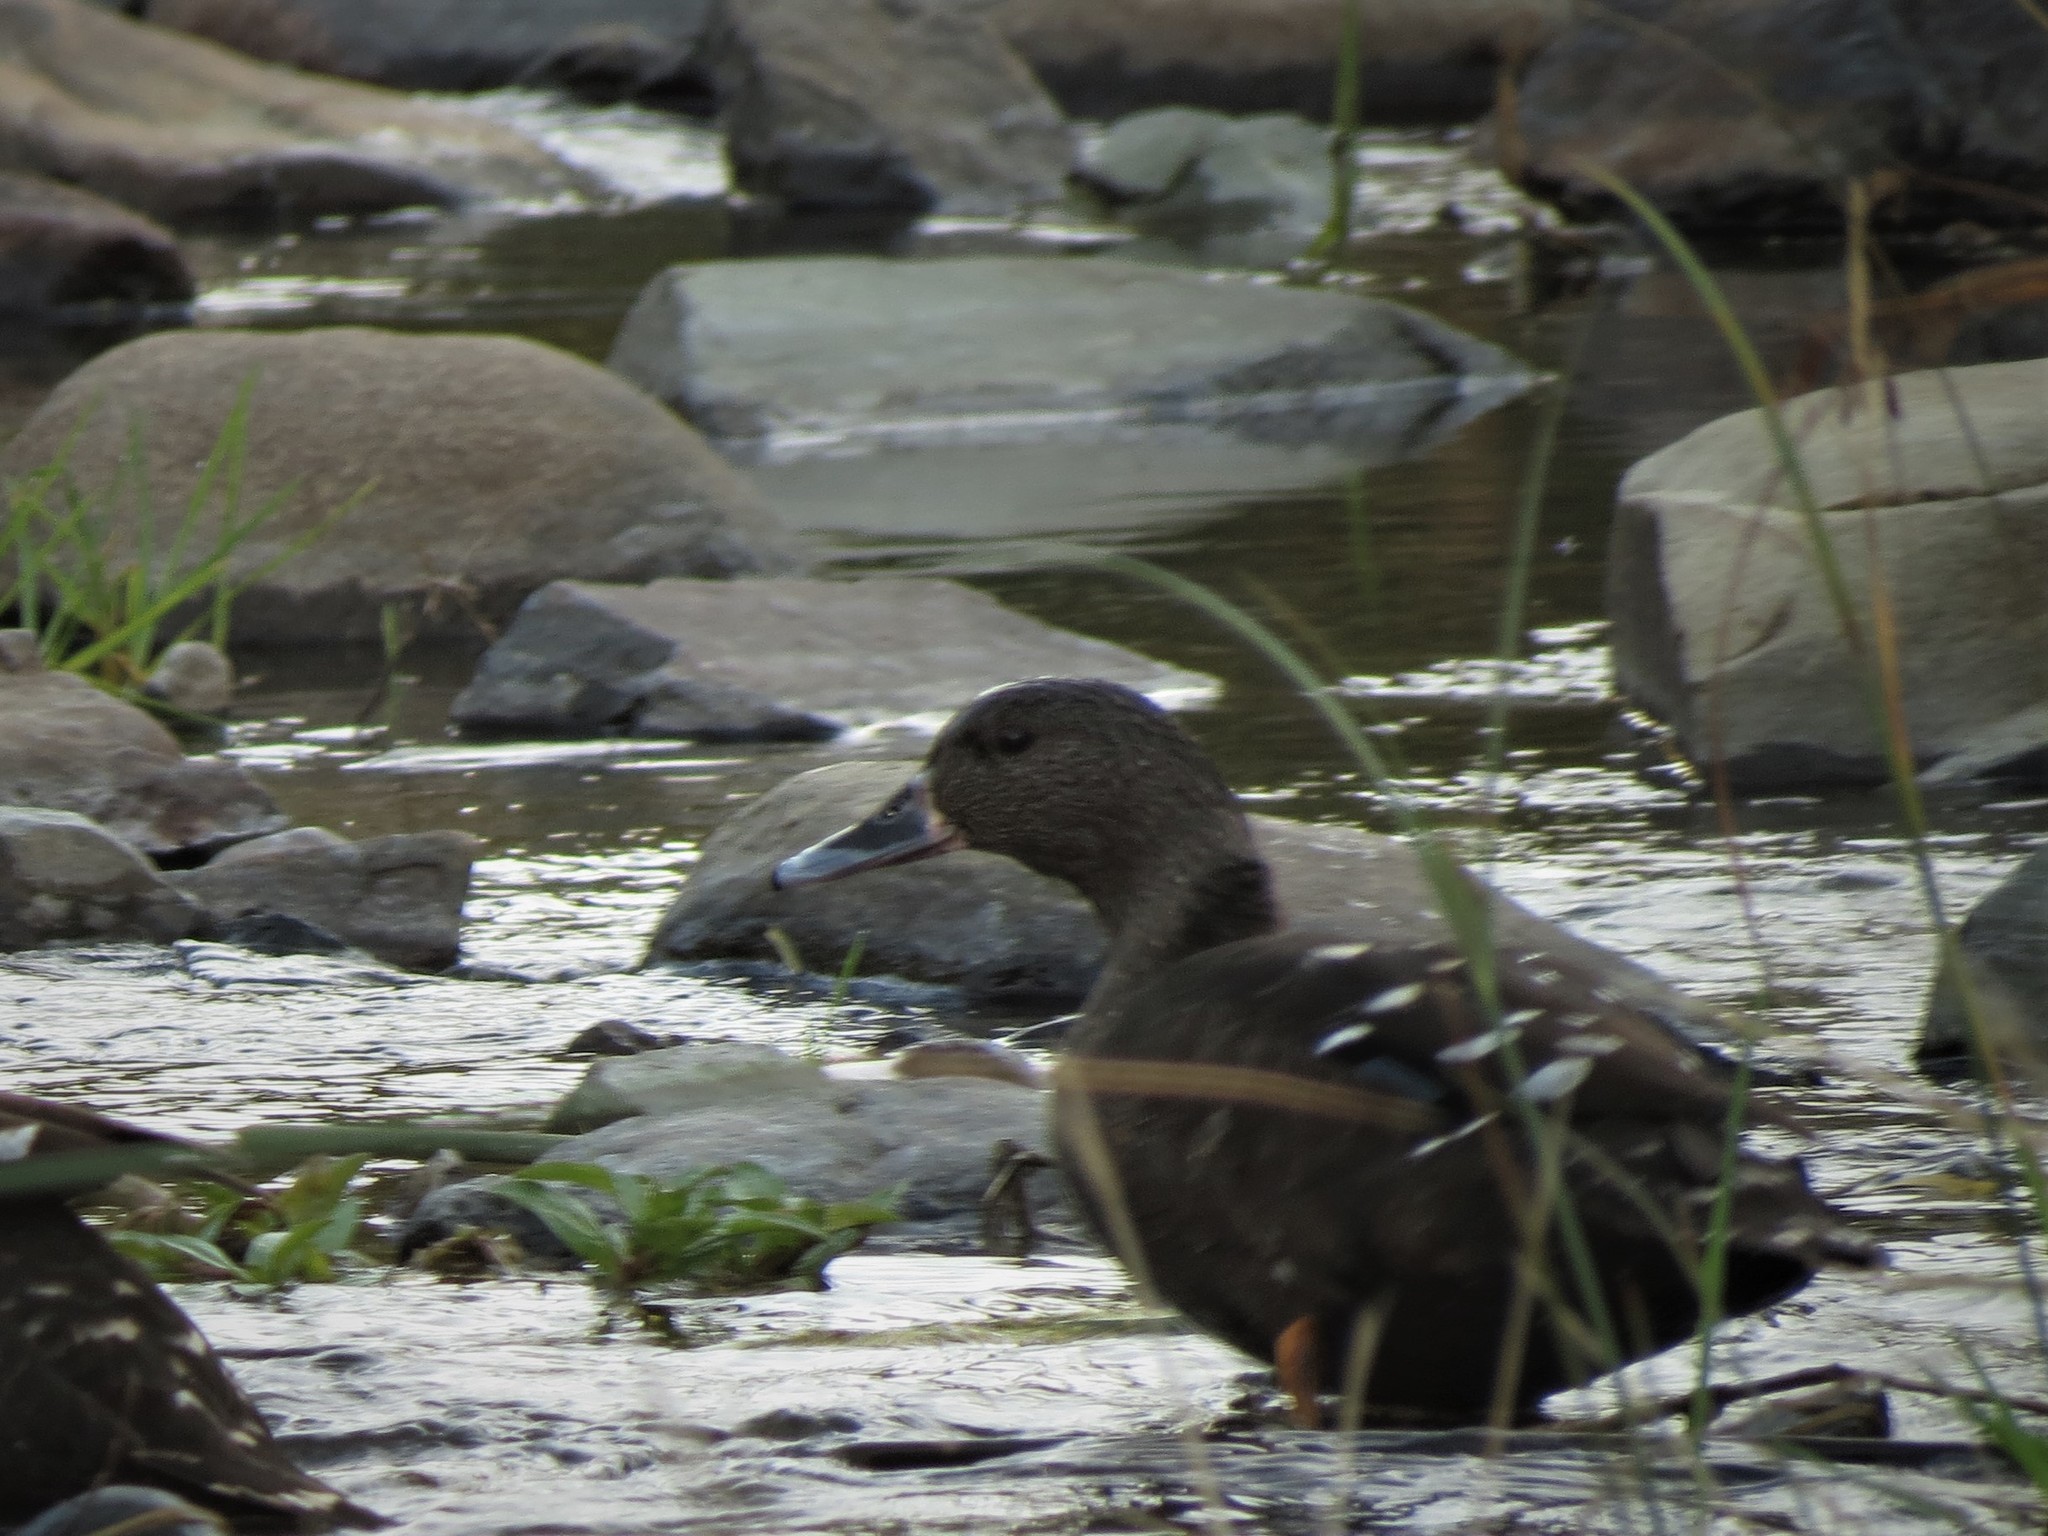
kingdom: Animalia
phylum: Chordata
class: Aves
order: Anseriformes
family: Anatidae
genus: Anas
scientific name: Anas sparsa
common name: African black duck
